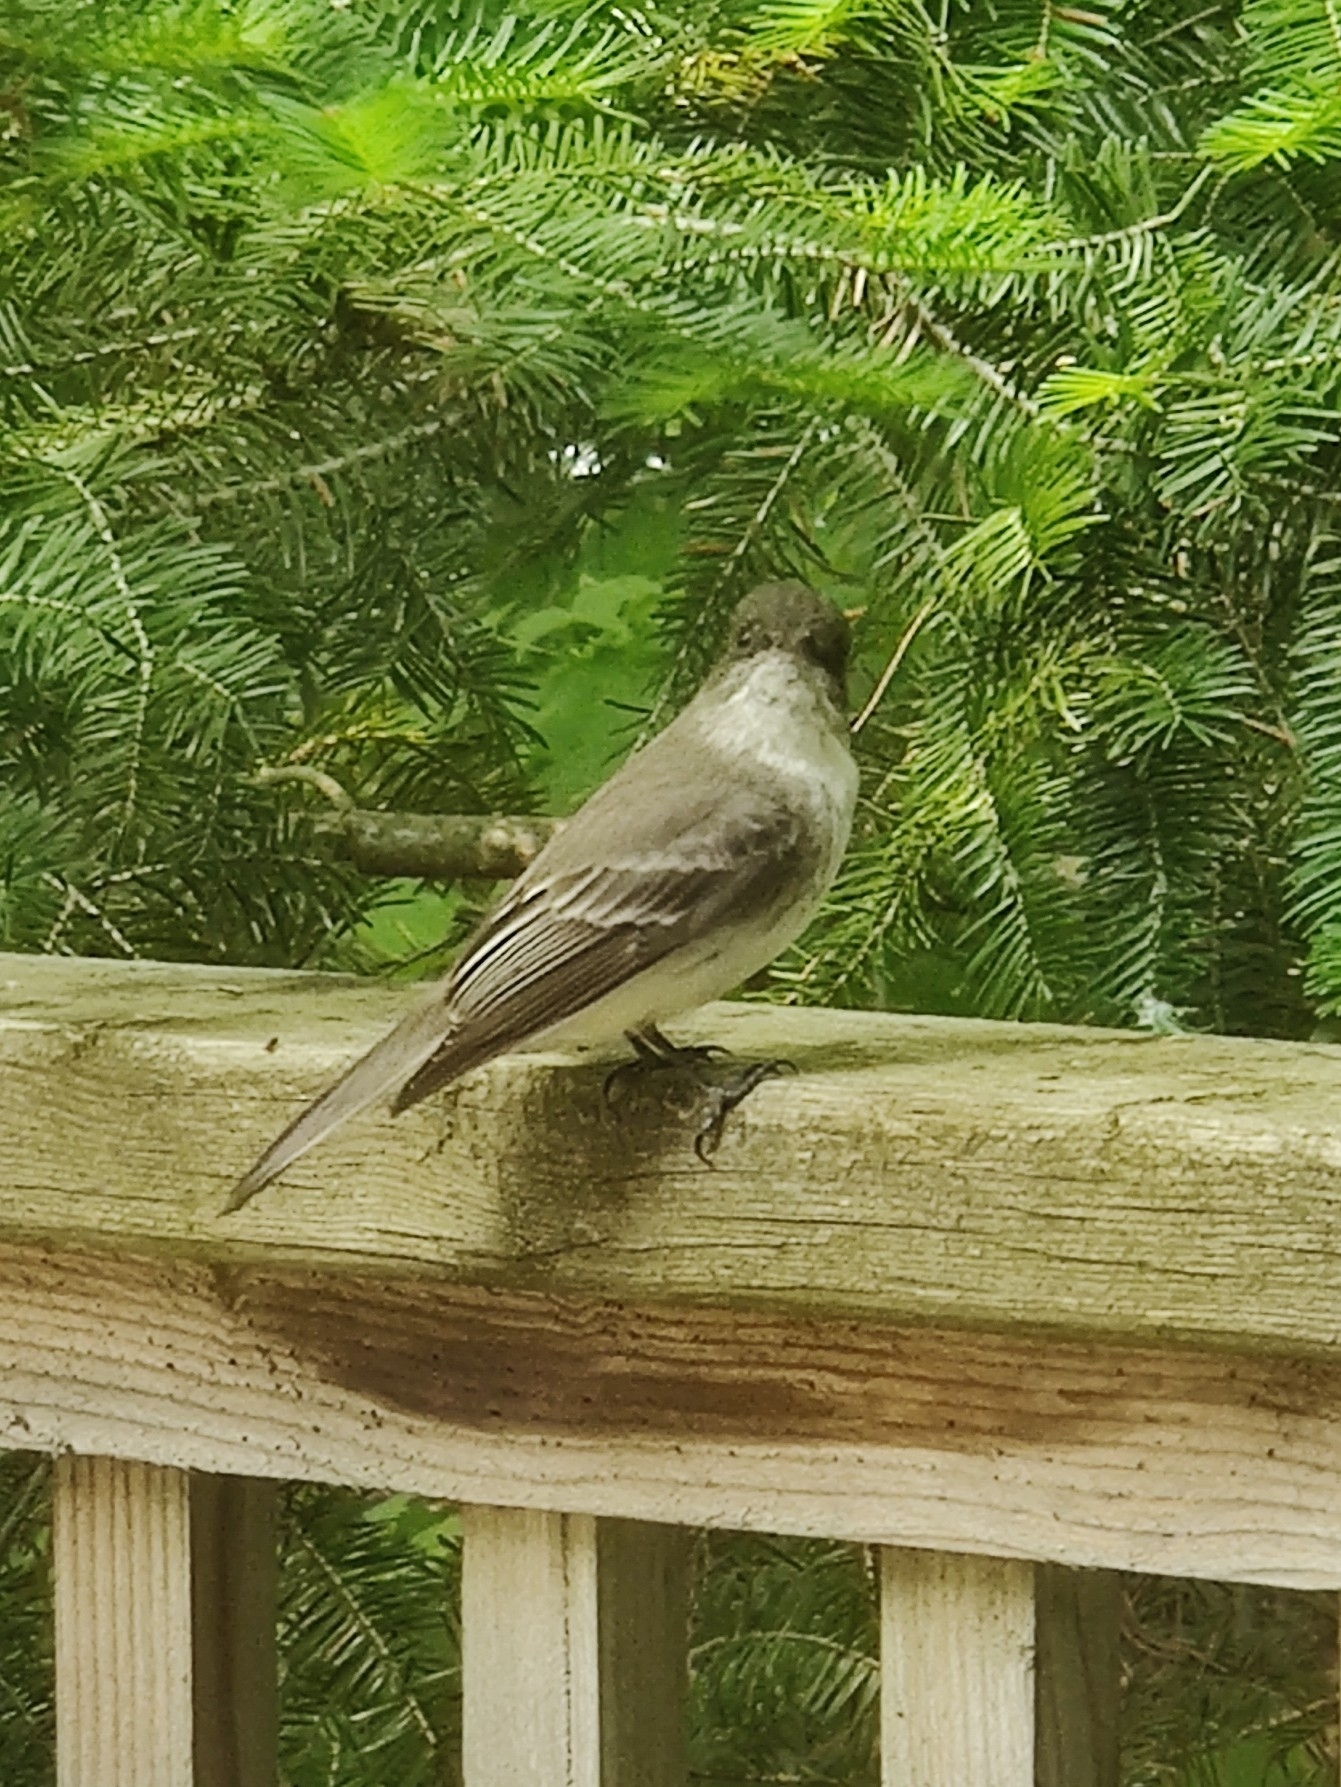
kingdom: Animalia
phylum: Chordata
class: Aves
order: Passeriformes
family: Tyrannidae
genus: Contopus
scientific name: Contopus virens
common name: Eastern wood-pewee
